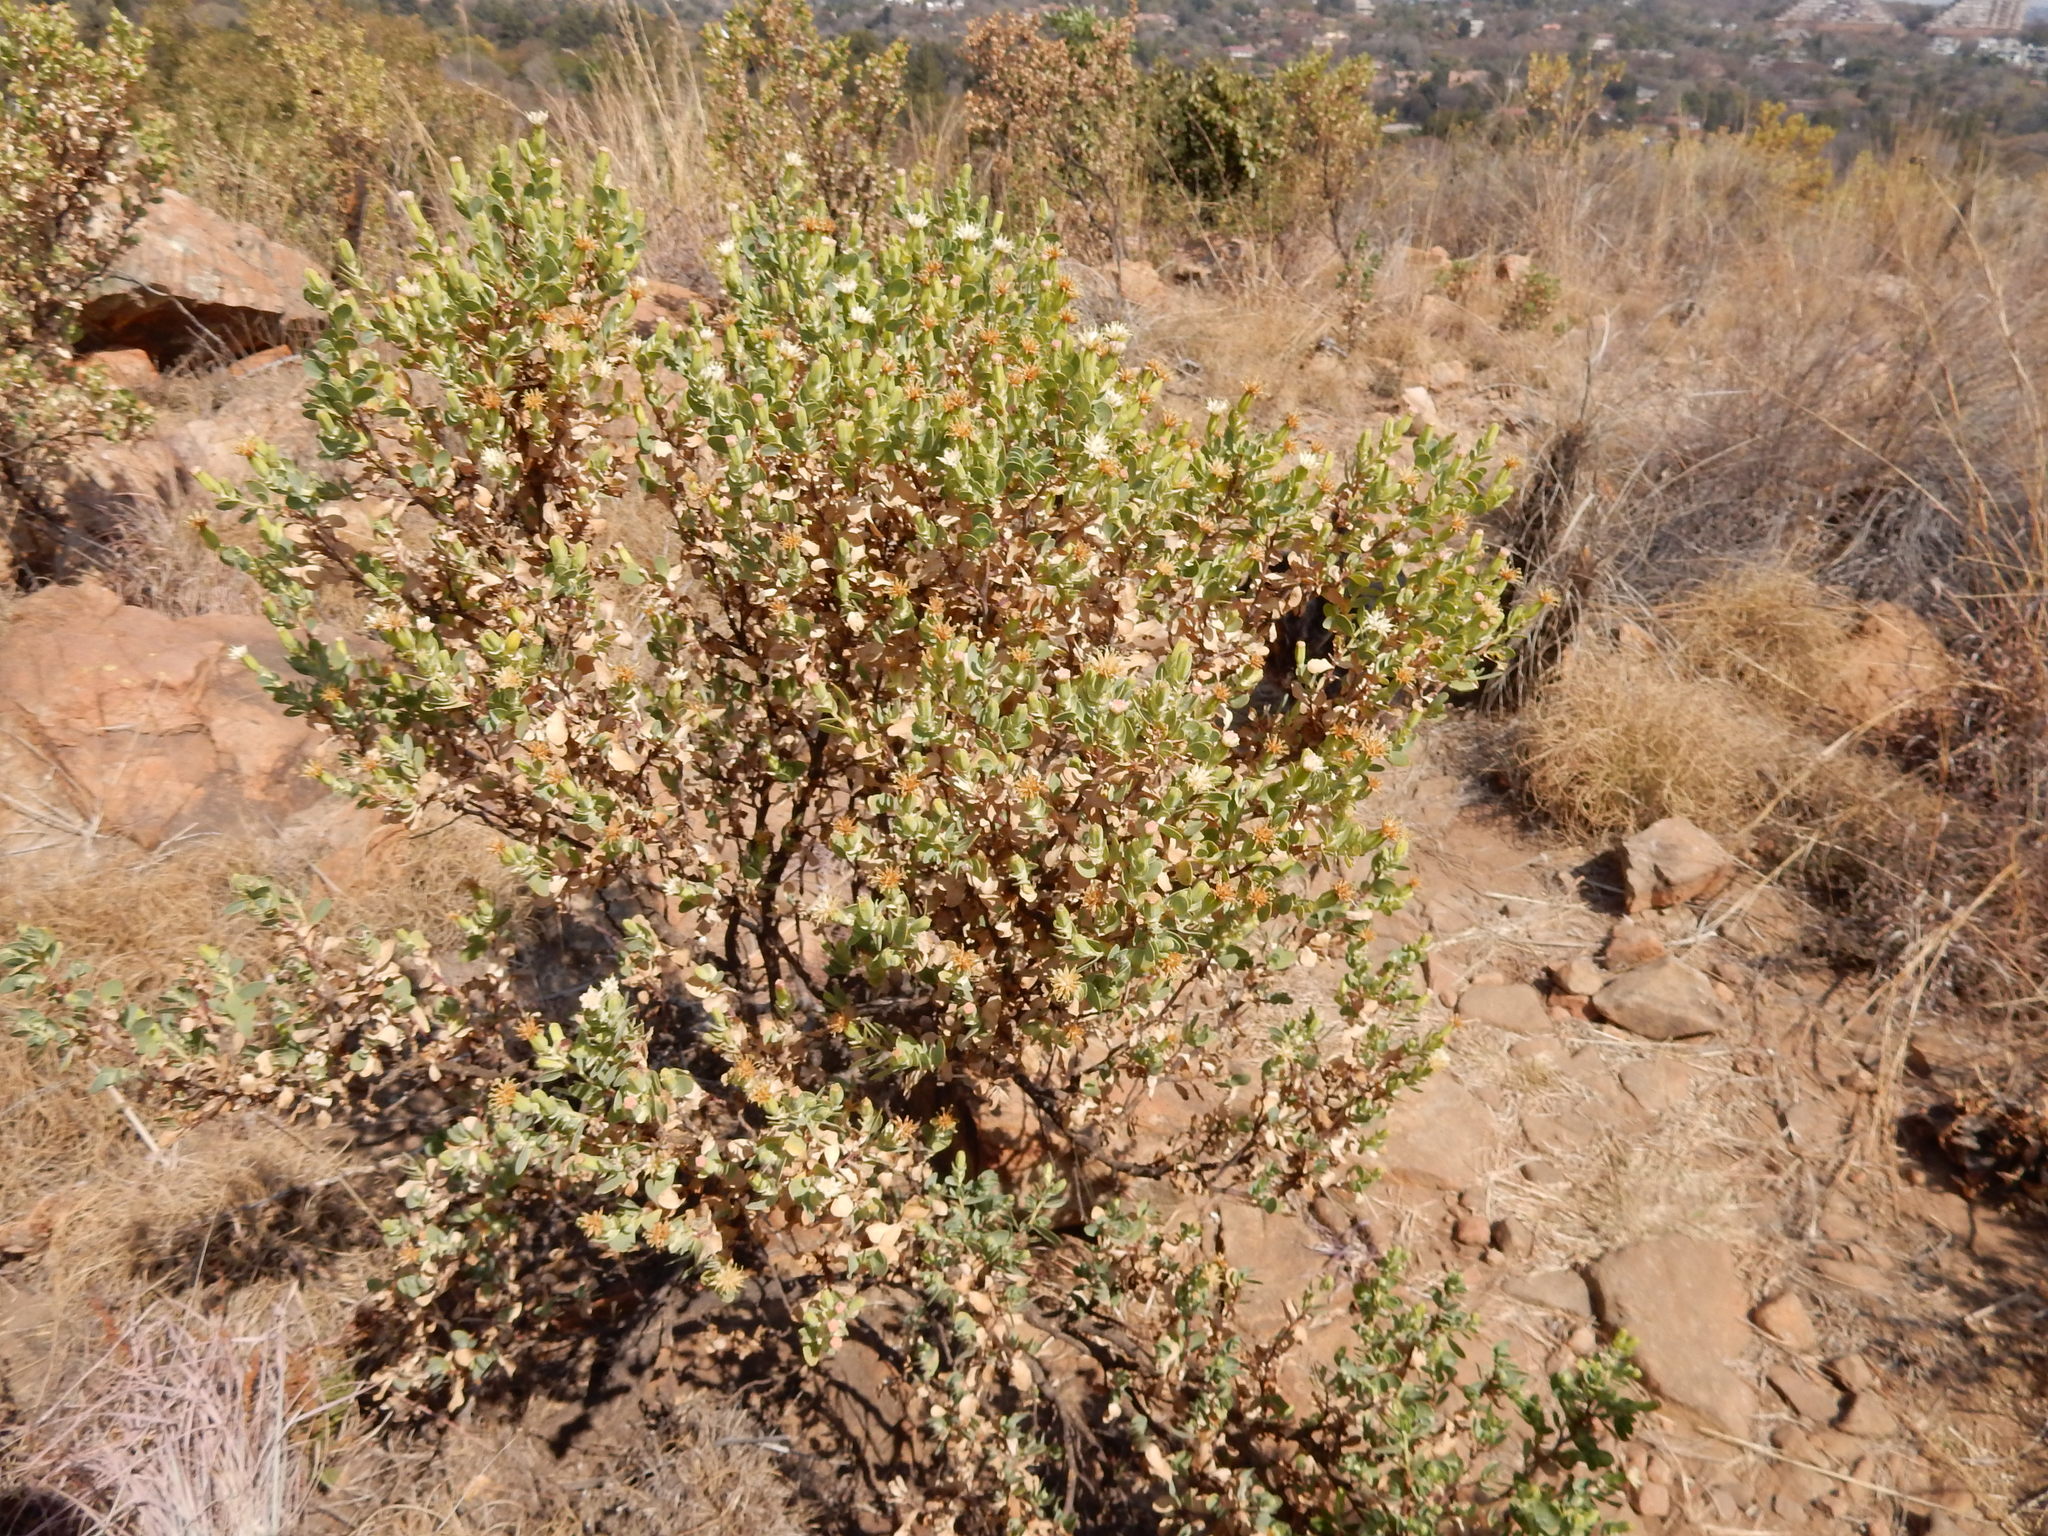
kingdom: Plantae
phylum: Tracheophyta
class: Magnoliopsida
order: Asterales
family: Asteraceae
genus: Lopholaena
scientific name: Lopholaena coriifolia
